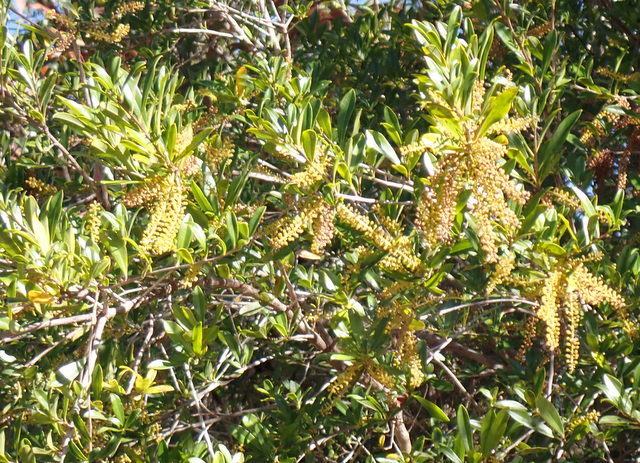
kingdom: Plantae
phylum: Tracheophyta
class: Magnoliopsida
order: Ericales
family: Cyrillaceae
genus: Cyrilla
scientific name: Cyrilla racemiflora
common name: Black titi
